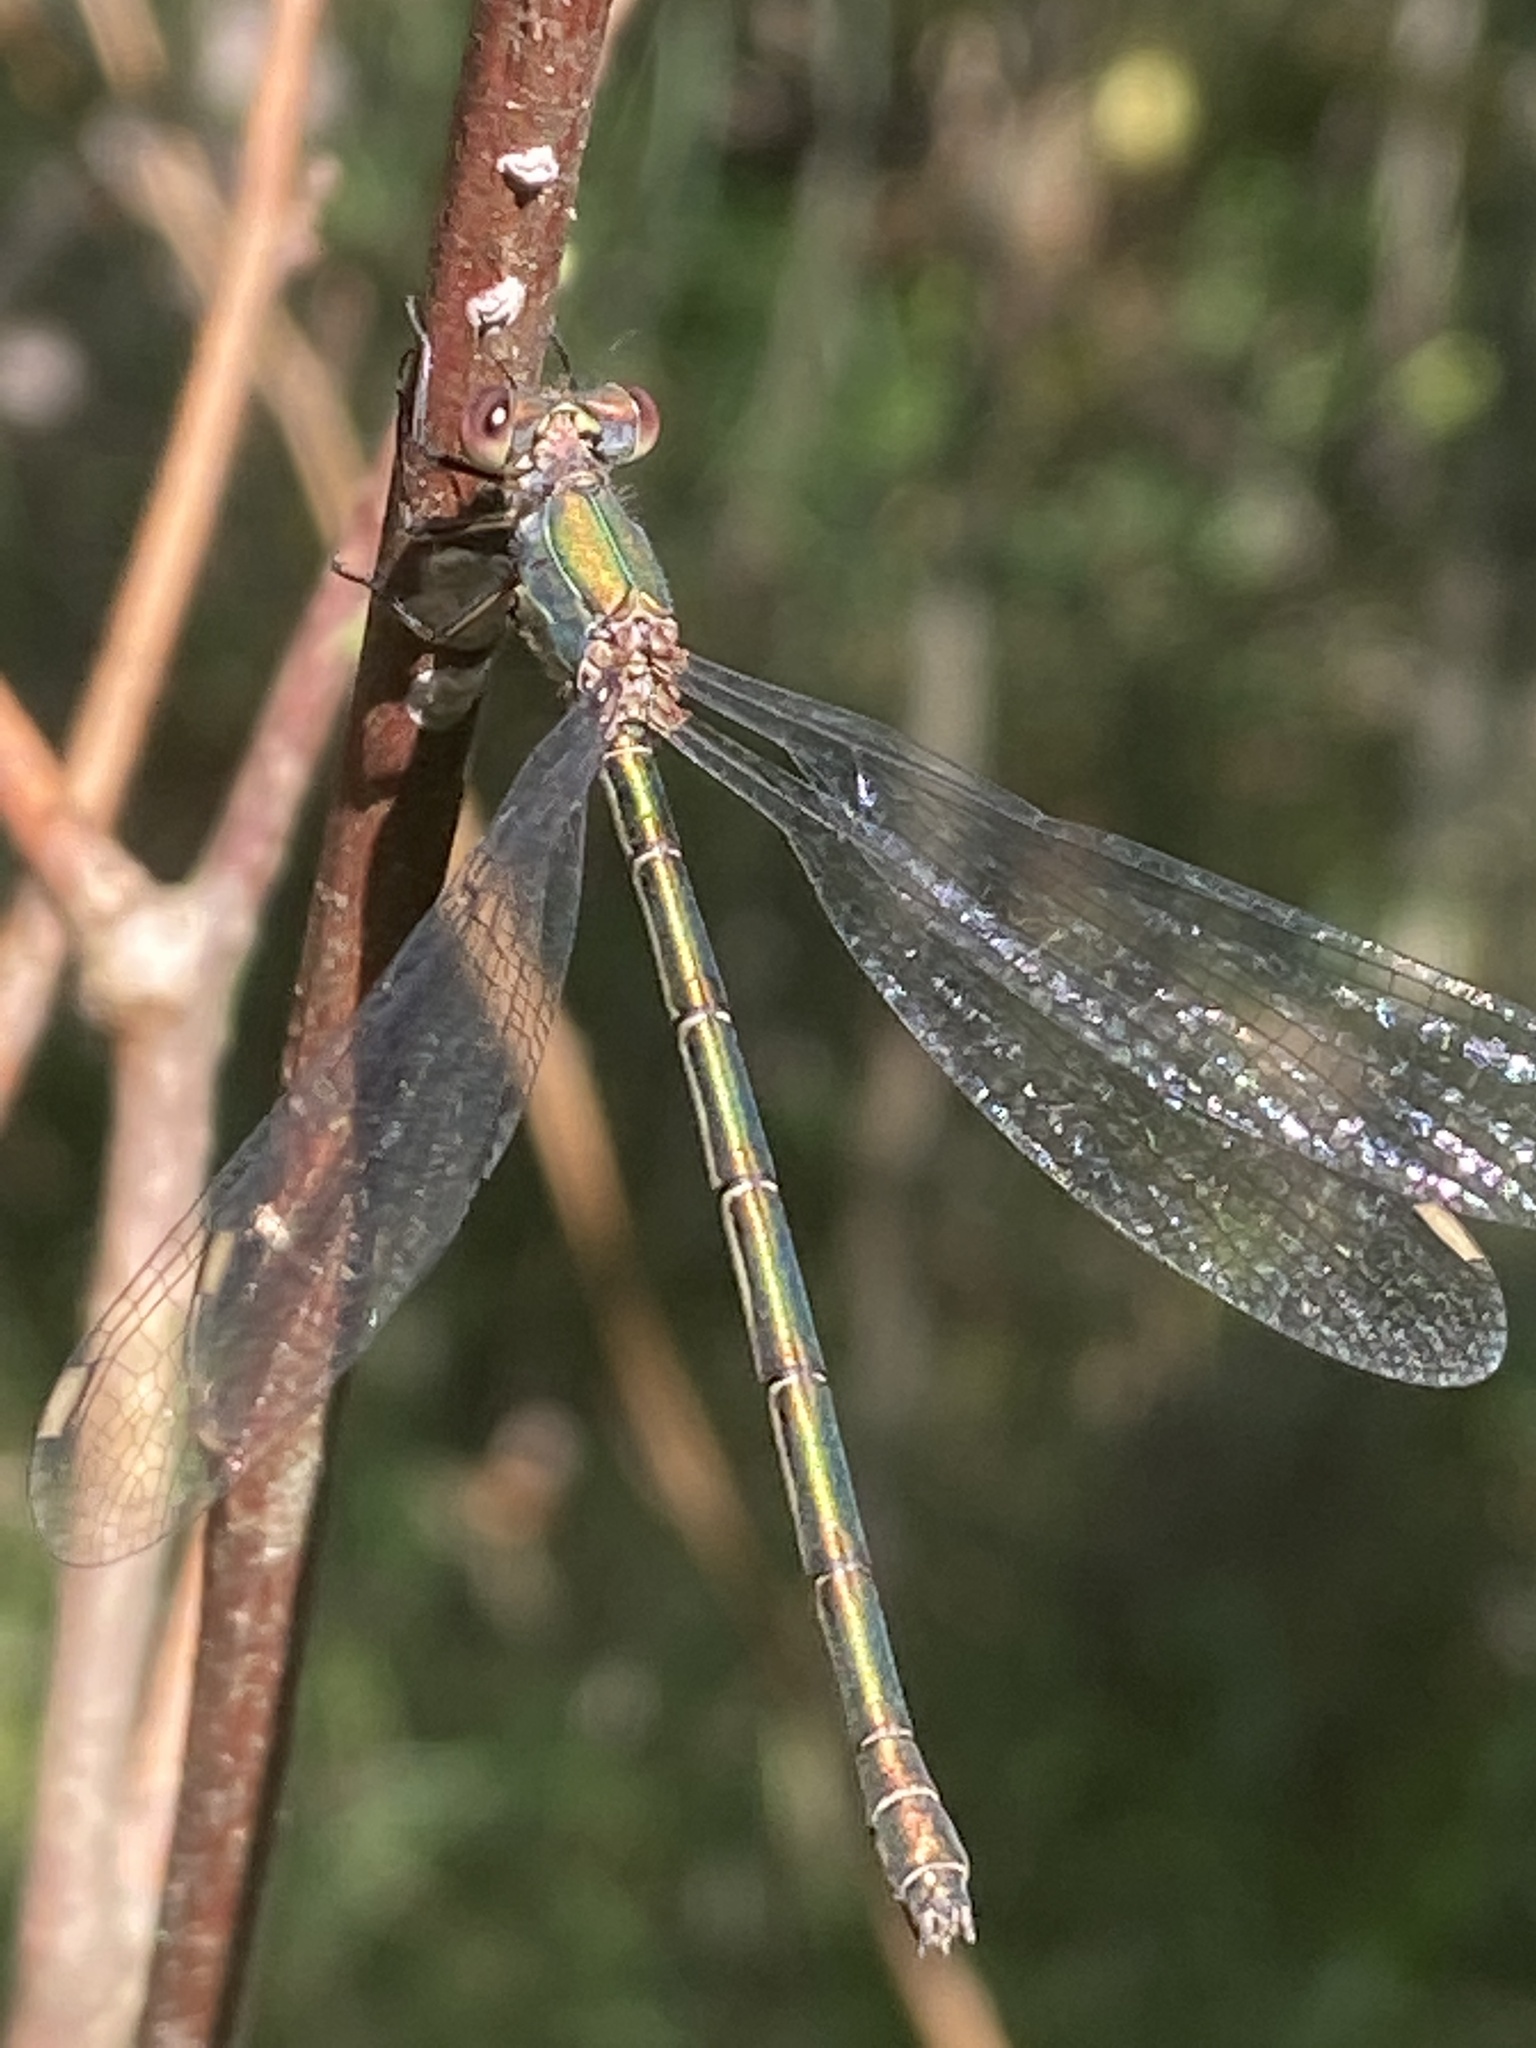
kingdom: Animalia
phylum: Arthropoda
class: Insecta
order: Odonata
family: Lestidae
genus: Chalcolestes
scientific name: Chalcolestes viridis
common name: Green emerald damselfly
